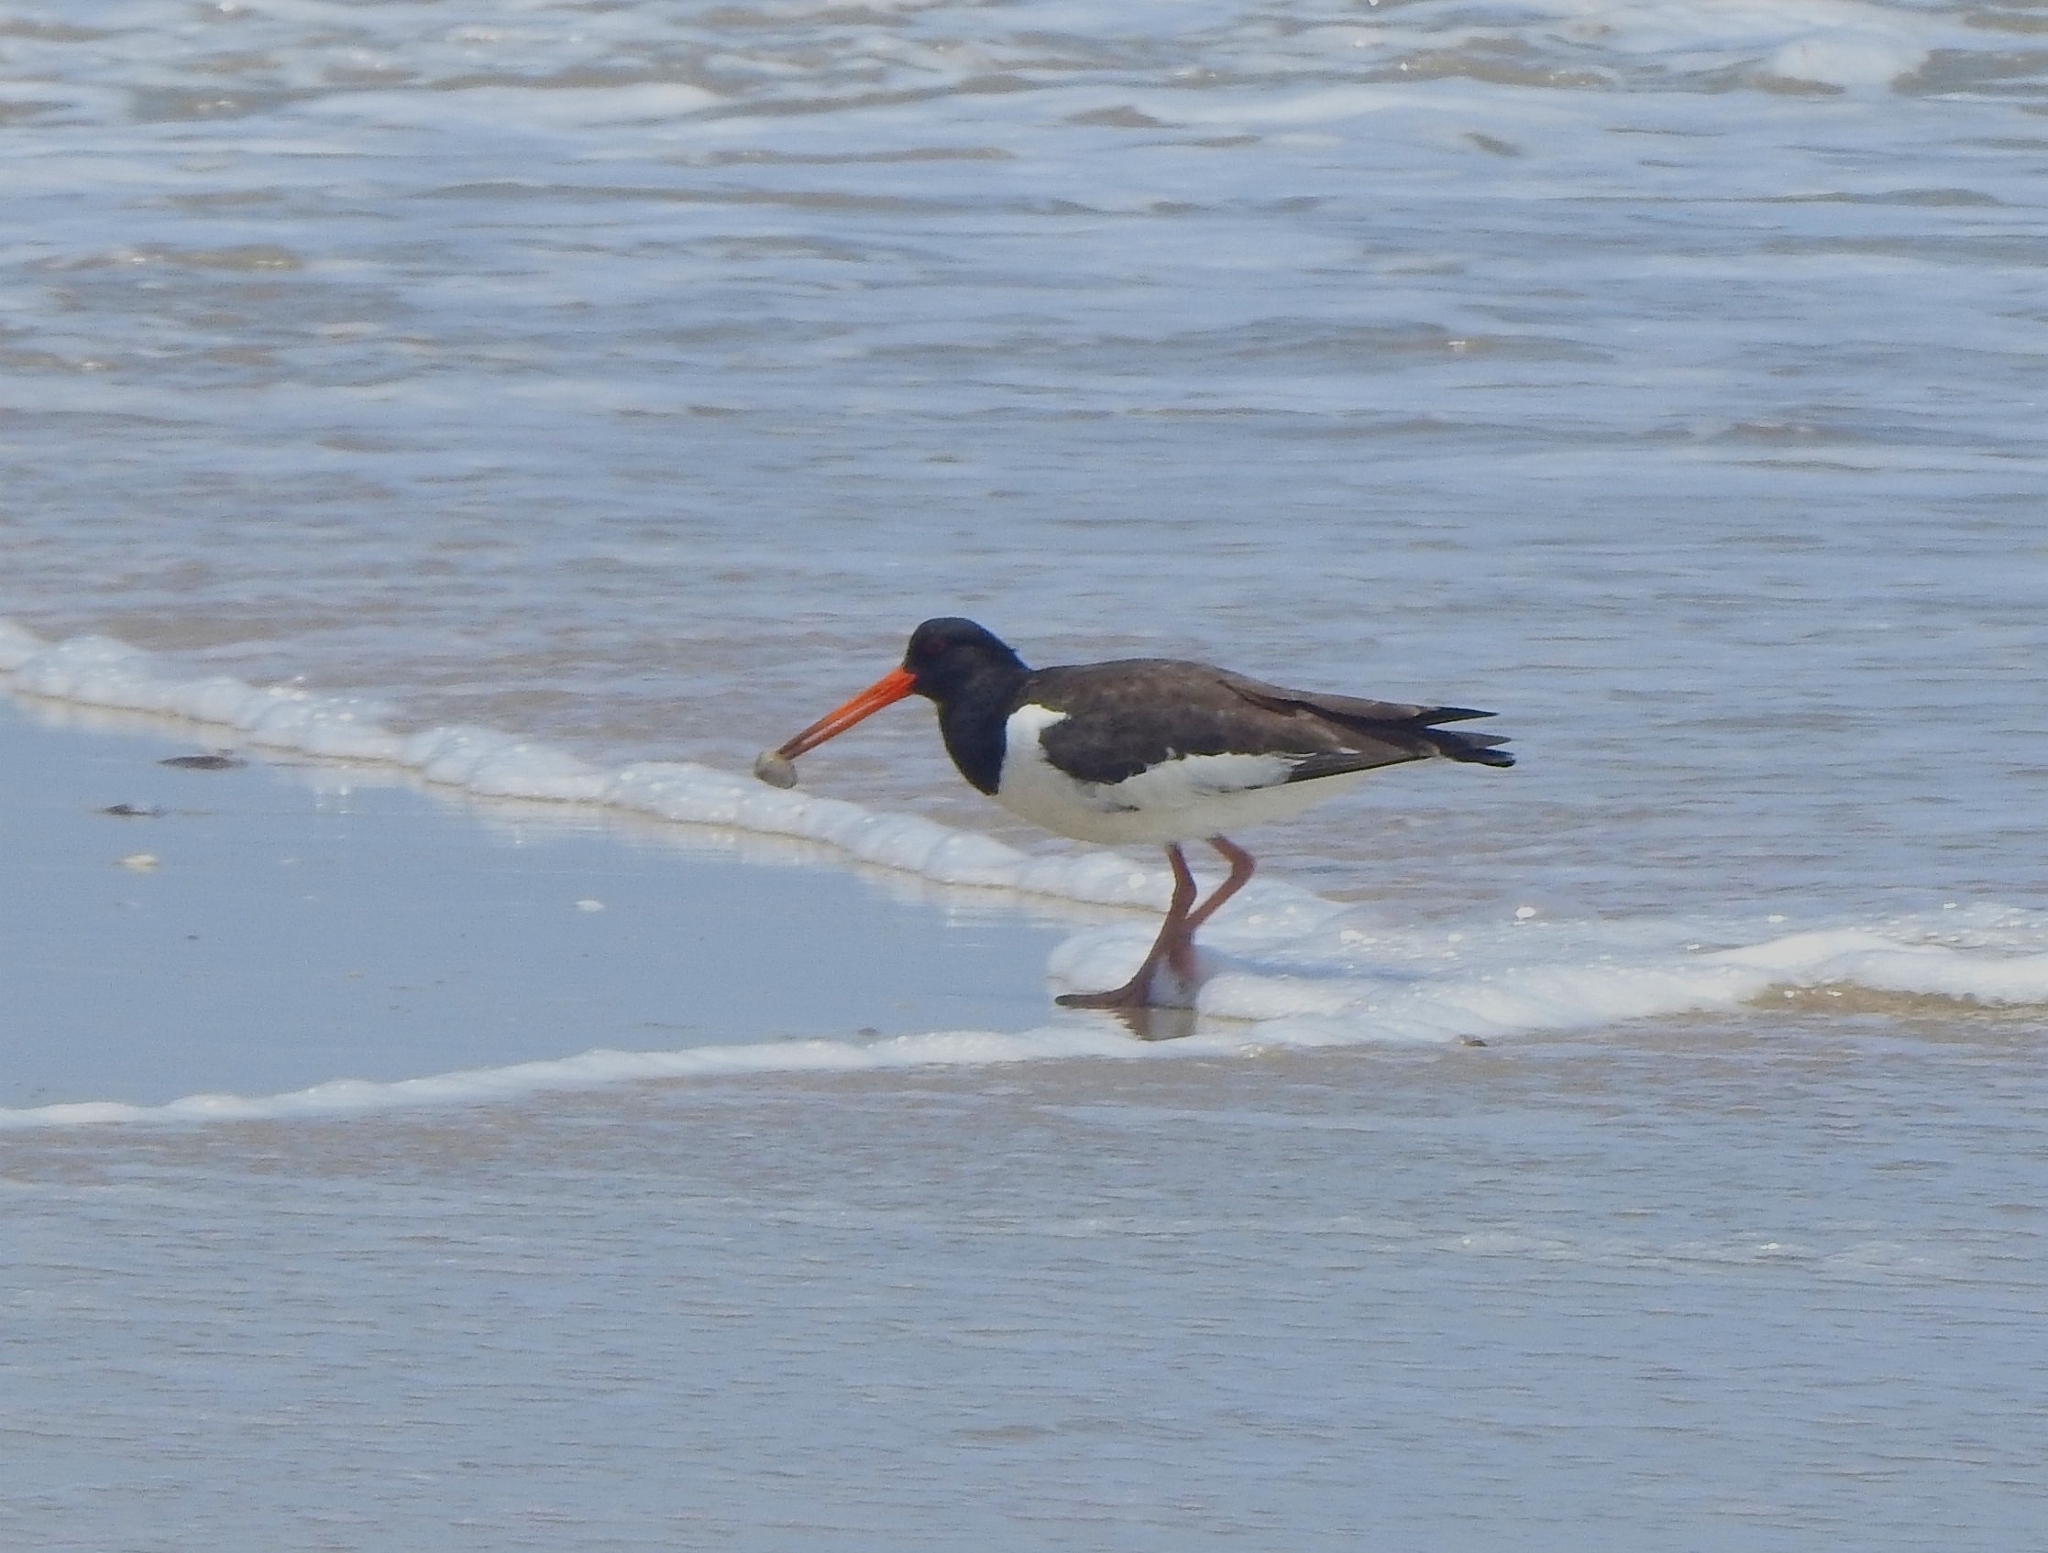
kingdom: Animalia
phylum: Chordata
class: Aves
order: Charadriiformes
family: Haematopodidae
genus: Haematopus
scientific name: Haematopus ostralegus
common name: Eurasian oystercatcher
